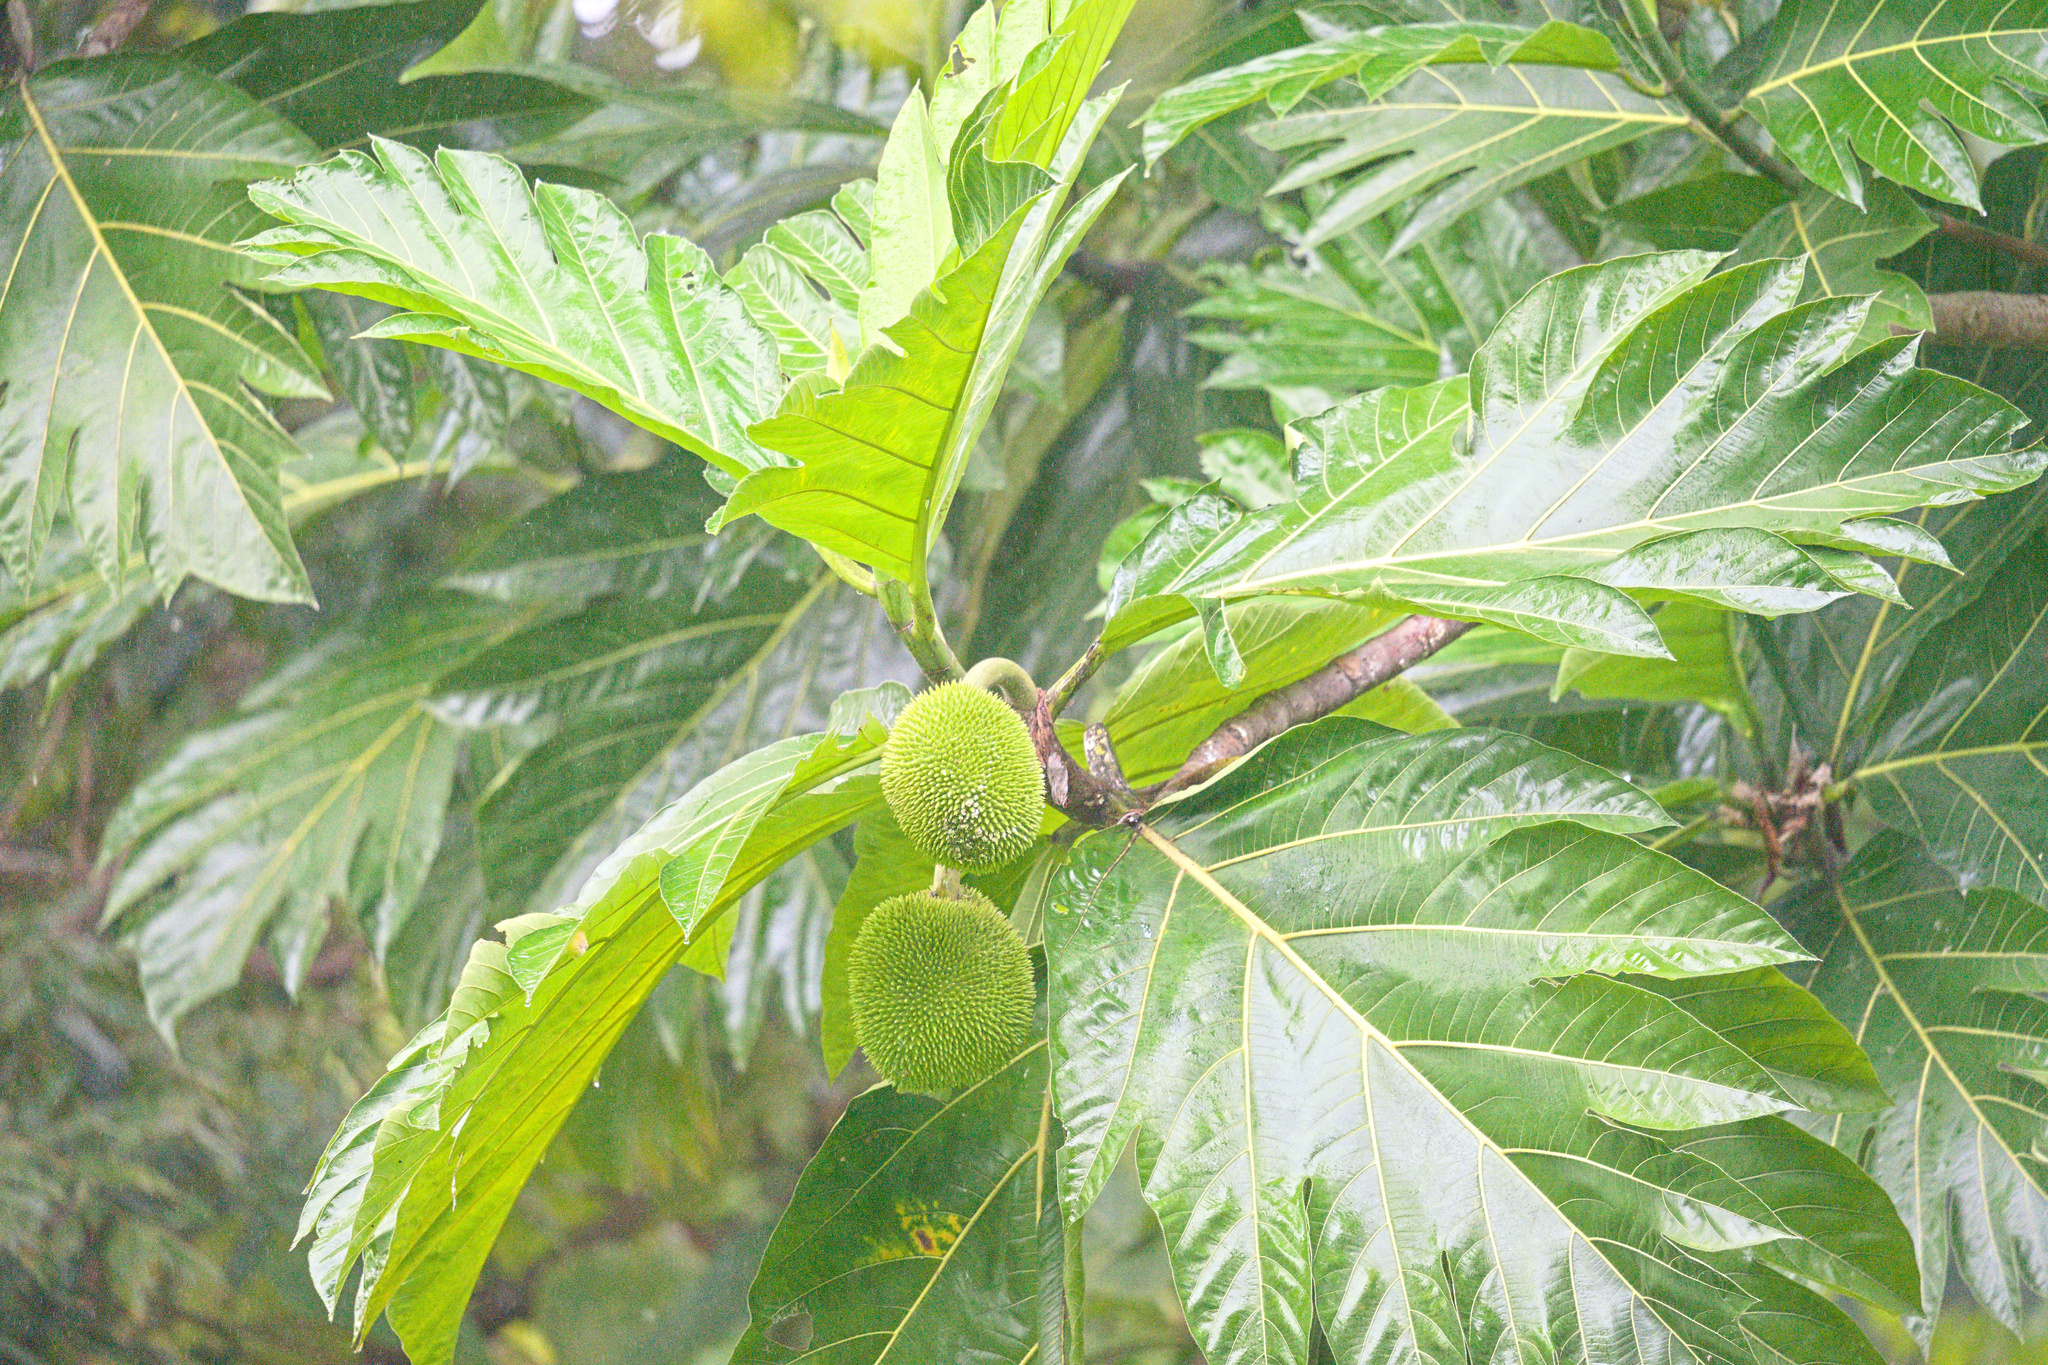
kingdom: Plantae
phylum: Tracheophyta
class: Magnoliopsida
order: Rosales
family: Moraceae
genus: Artocarpus
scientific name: Artocarpus altilis
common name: Breadfruit
